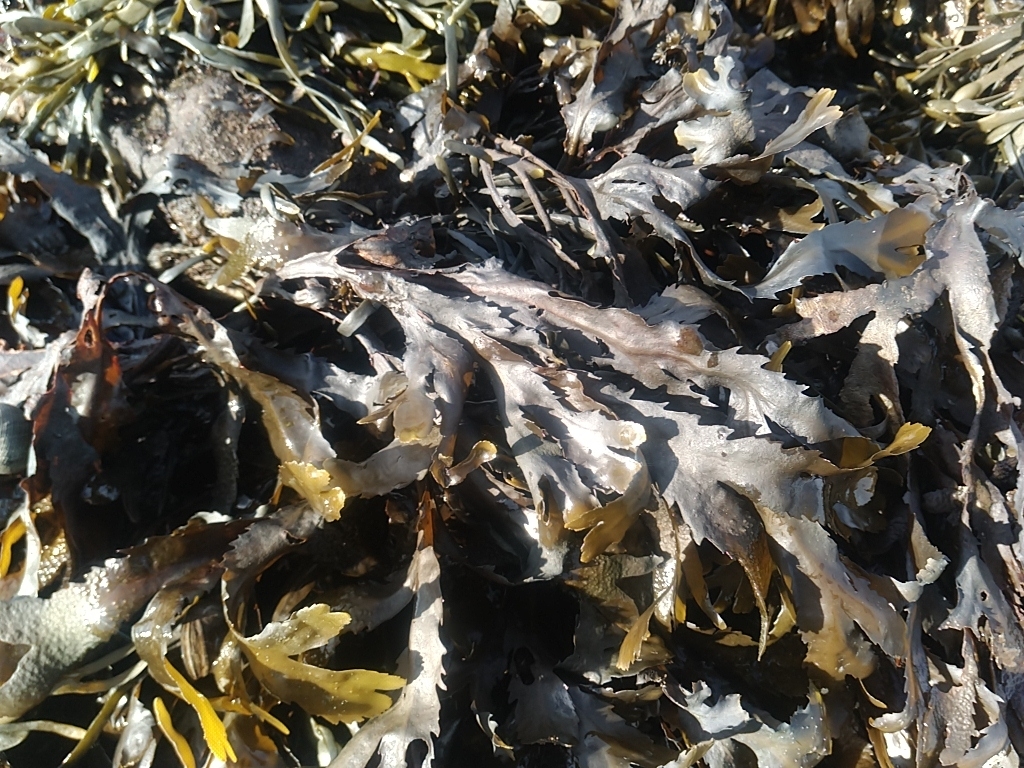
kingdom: Chromista
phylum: Ochrophyta
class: Phaeophyceae
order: Fucales
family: Fucaceae
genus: Fucus
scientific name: Fucus serratus
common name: Toothed wrack
